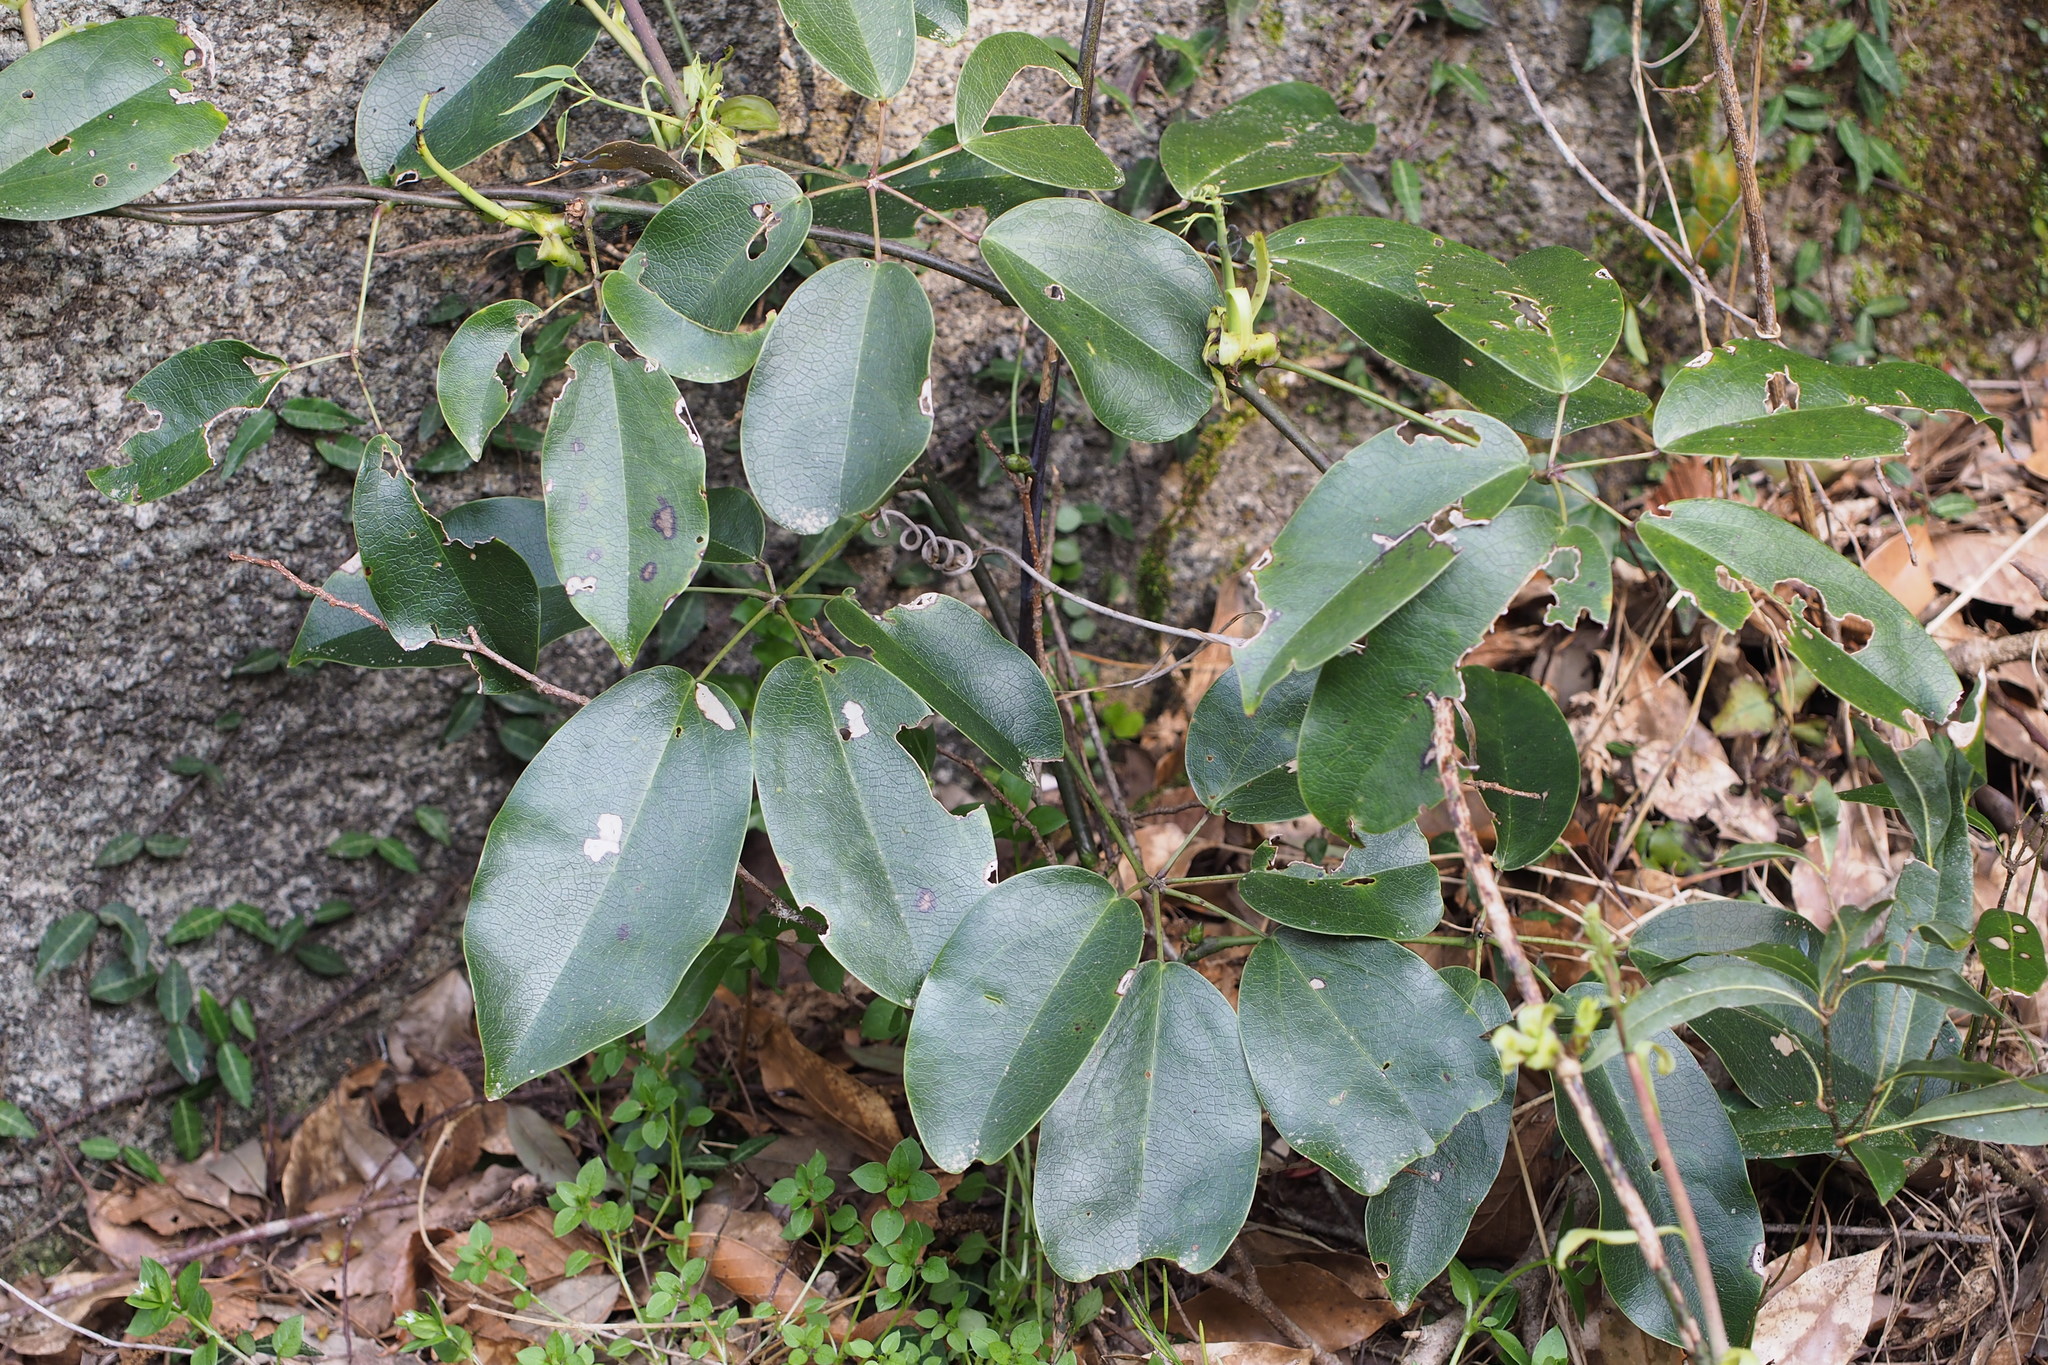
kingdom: Plantae
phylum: Tracheophyta
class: Magnoliopsida
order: Ranunculales
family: Lardizabalaceae
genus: Stauntonia
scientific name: Stauntonia hexaphylla
